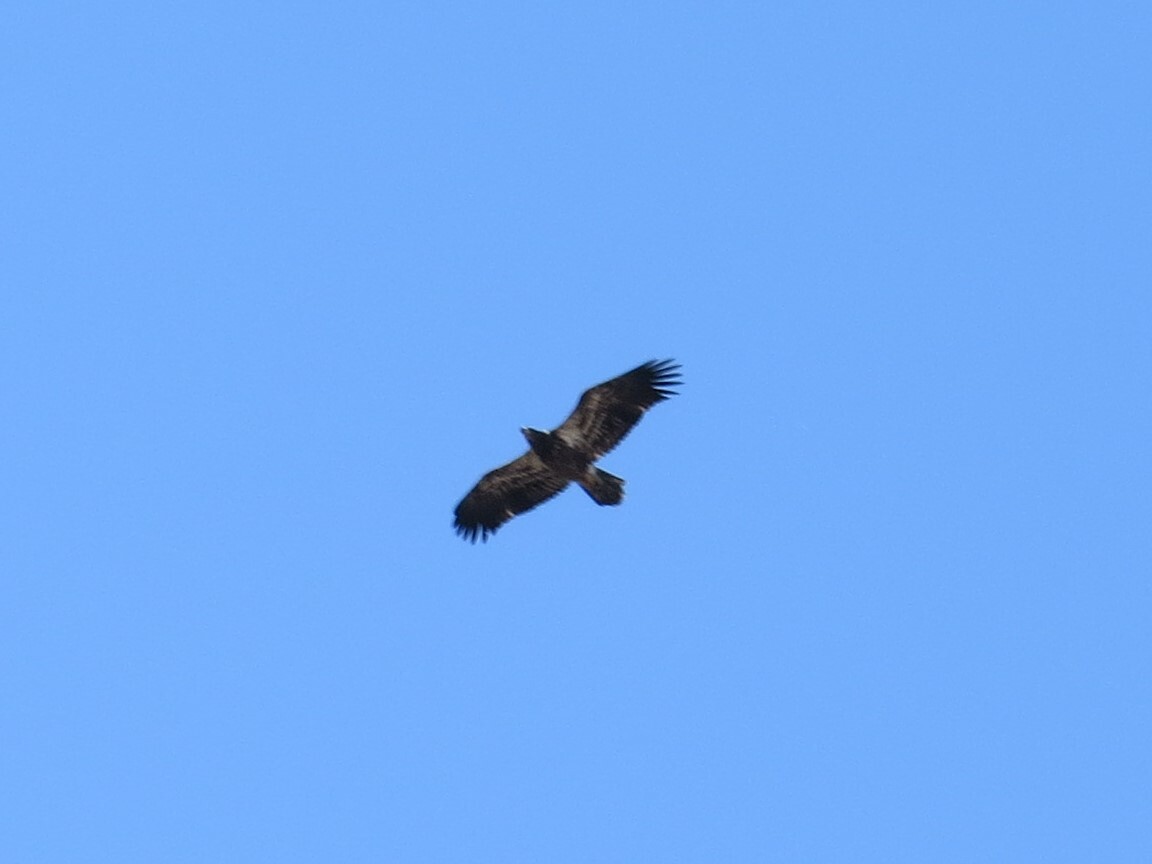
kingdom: Animalia
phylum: Chordata
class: Aves
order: Accipitriformes
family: Accipitridae
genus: Haliaeetus
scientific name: Haliaeetus leucocephalus
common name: Bald eagle
